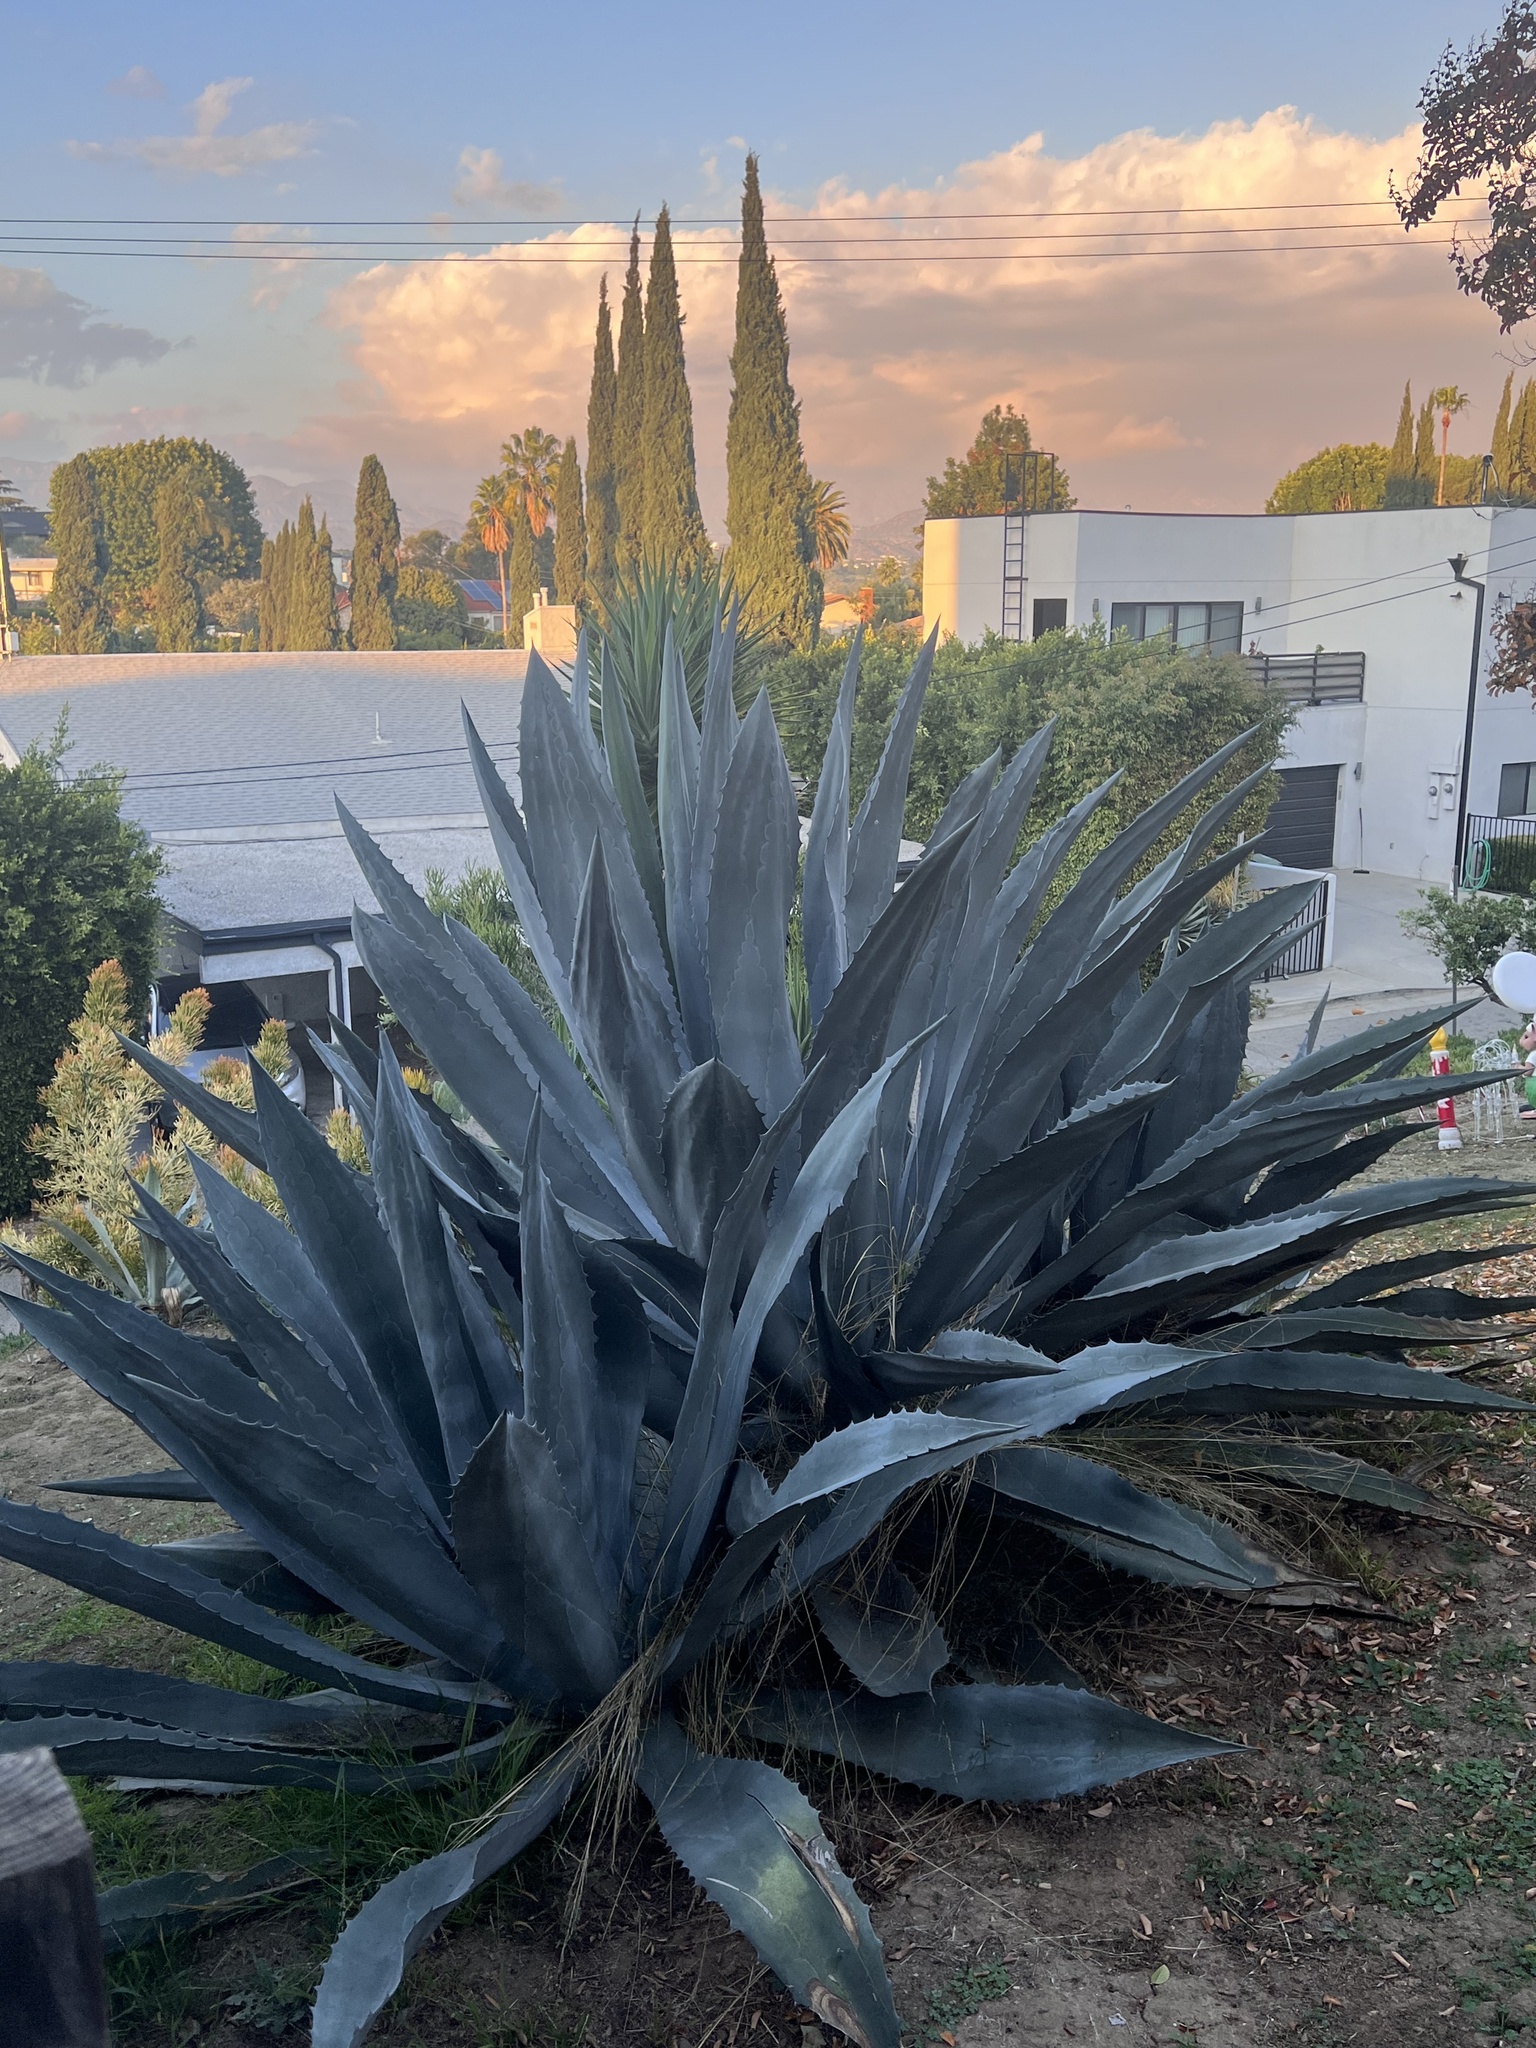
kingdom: Plantae
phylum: Tracheophyta
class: Liliopsida
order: Asparagales
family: Asparagaceae
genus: Agave
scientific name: Agave americana
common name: Centuryplant
